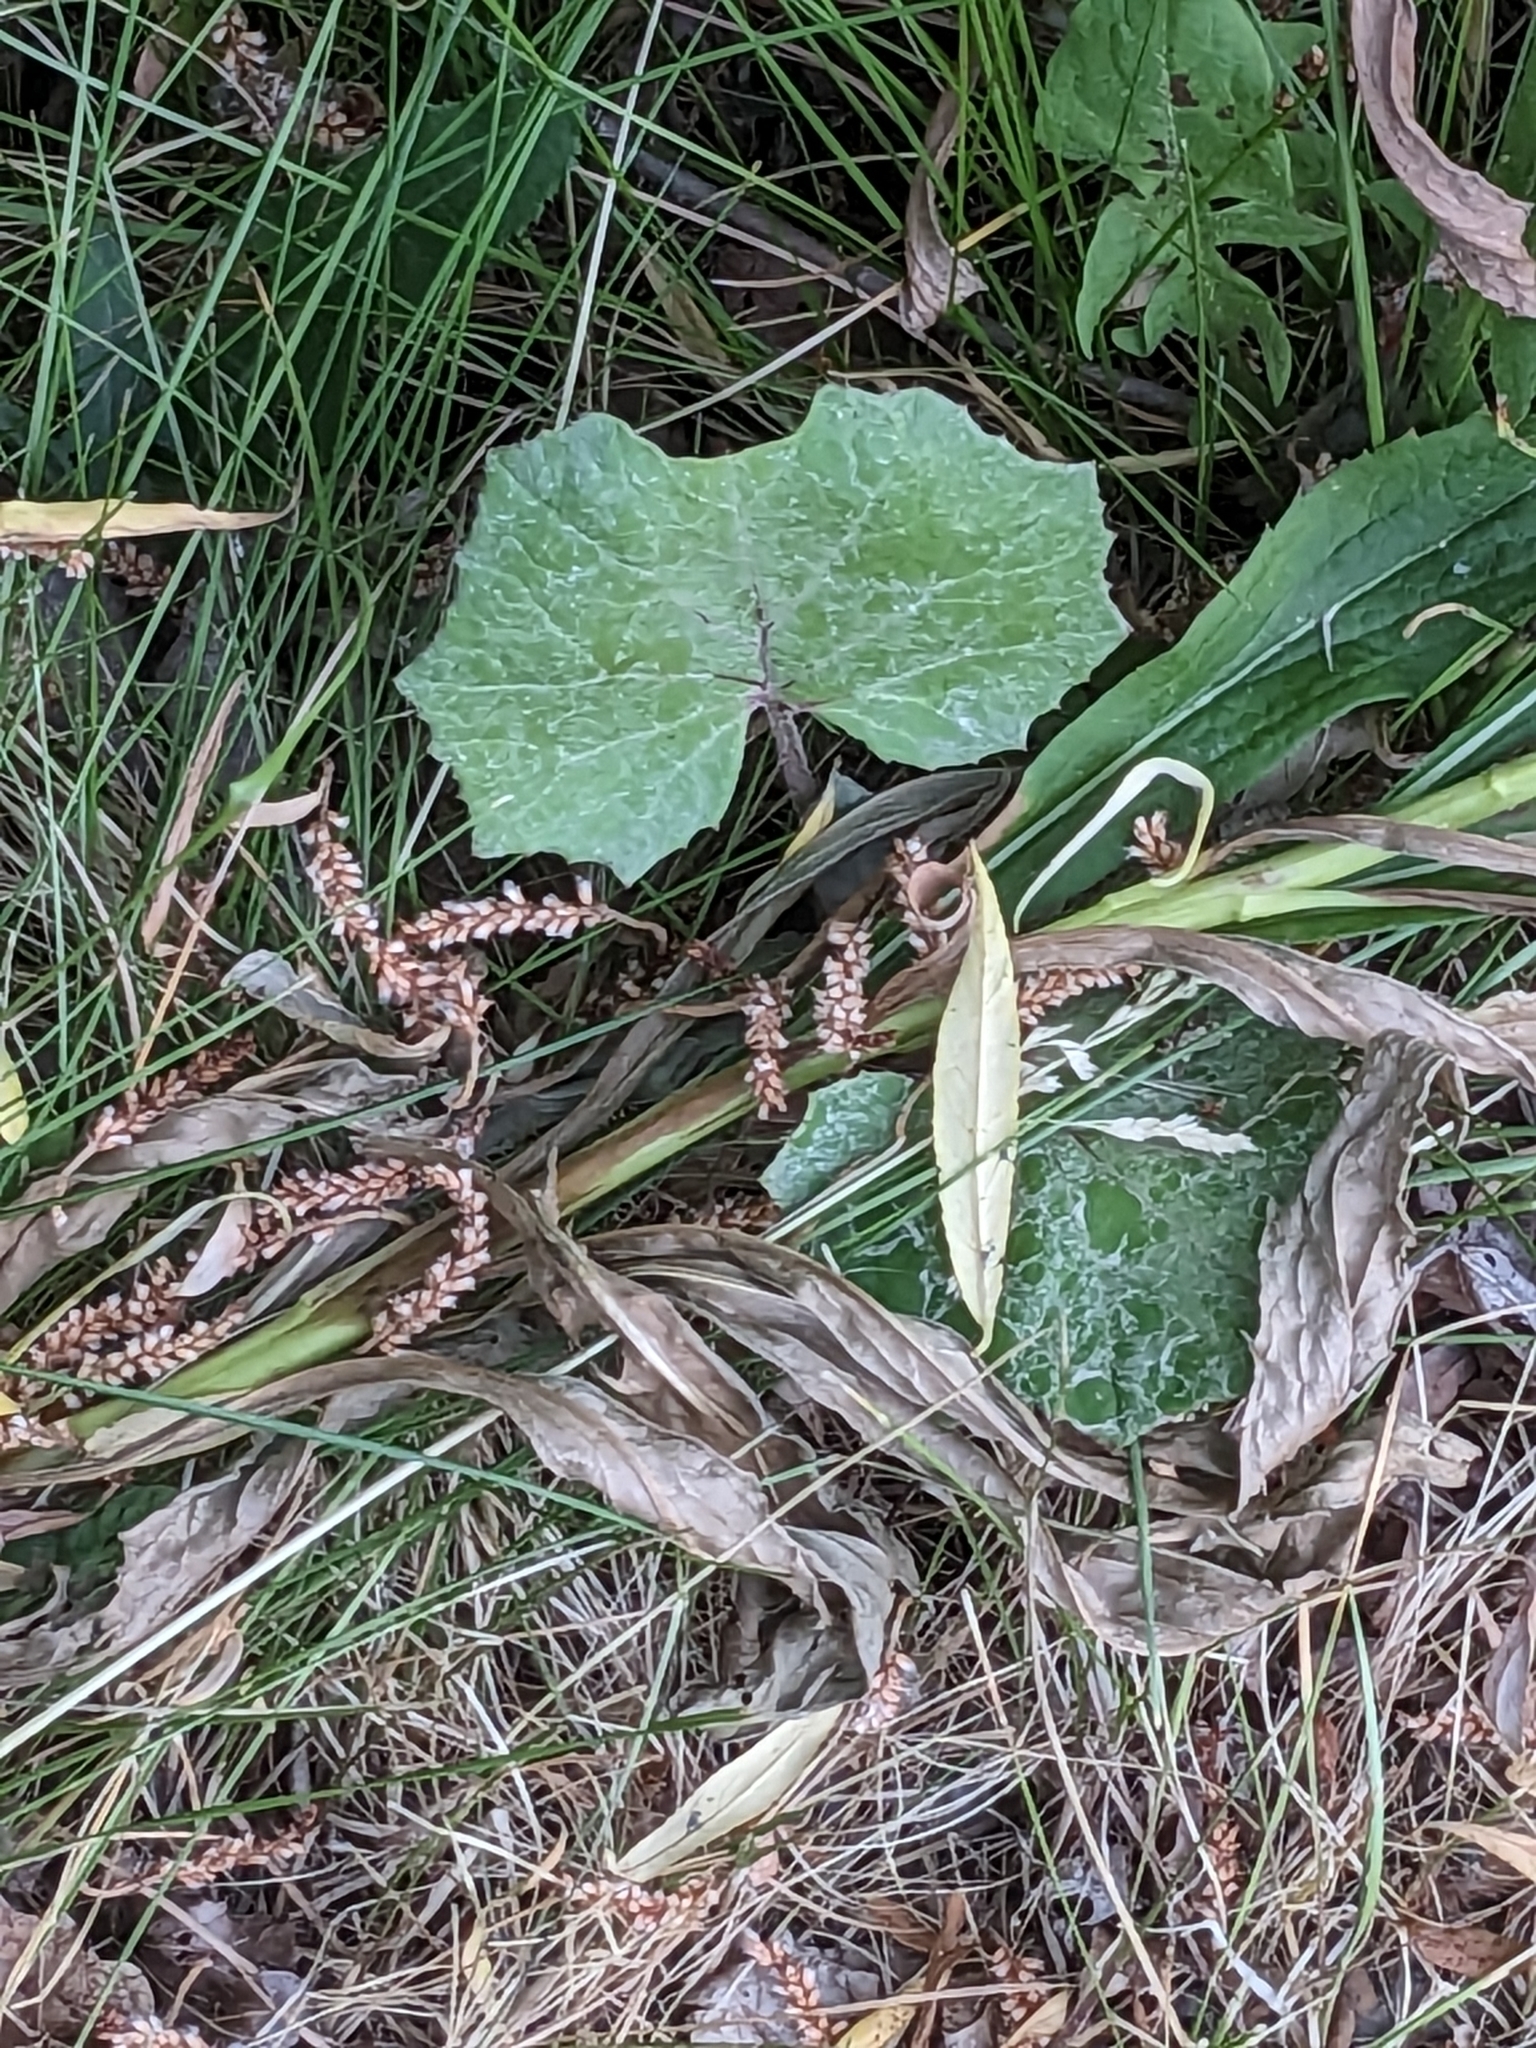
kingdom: Plantae
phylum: Tracheophyta
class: Magnoliopsida
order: Asterales
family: Asteraceae
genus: Tussilago
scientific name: Tussilago farfara
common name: Coltsfoot
